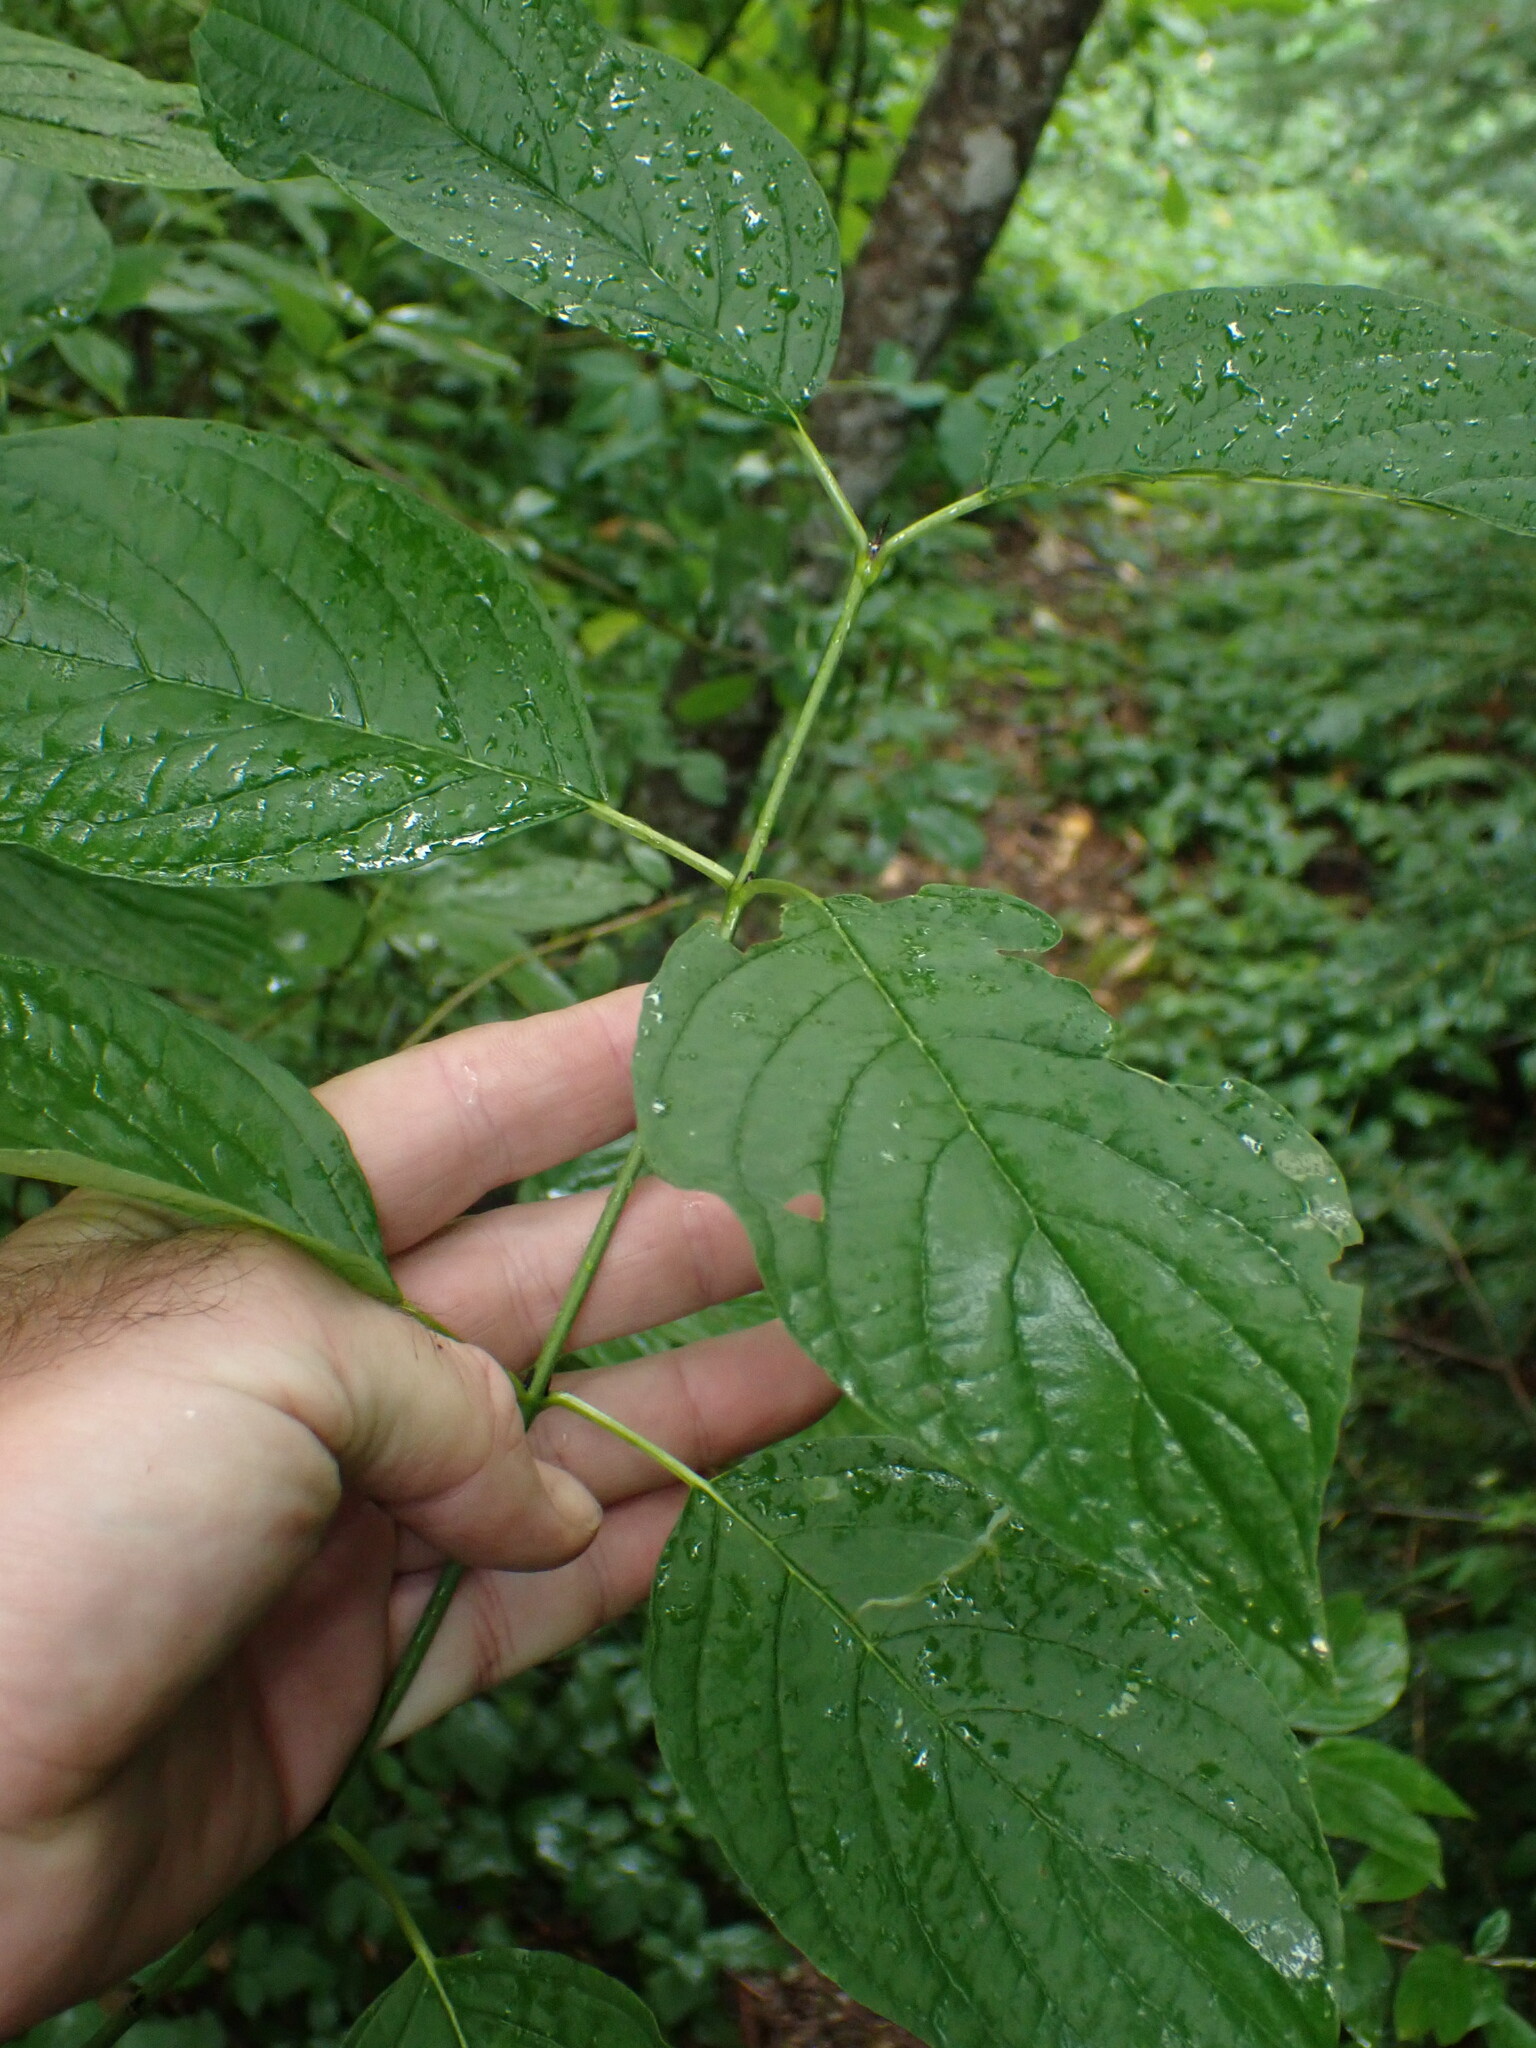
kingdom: Plantae
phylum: Tracheophyta
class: Magnoliopsida
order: Cornales
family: Cornaceae
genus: Cornus
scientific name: Cornus sericea
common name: Red-osier dogwood
